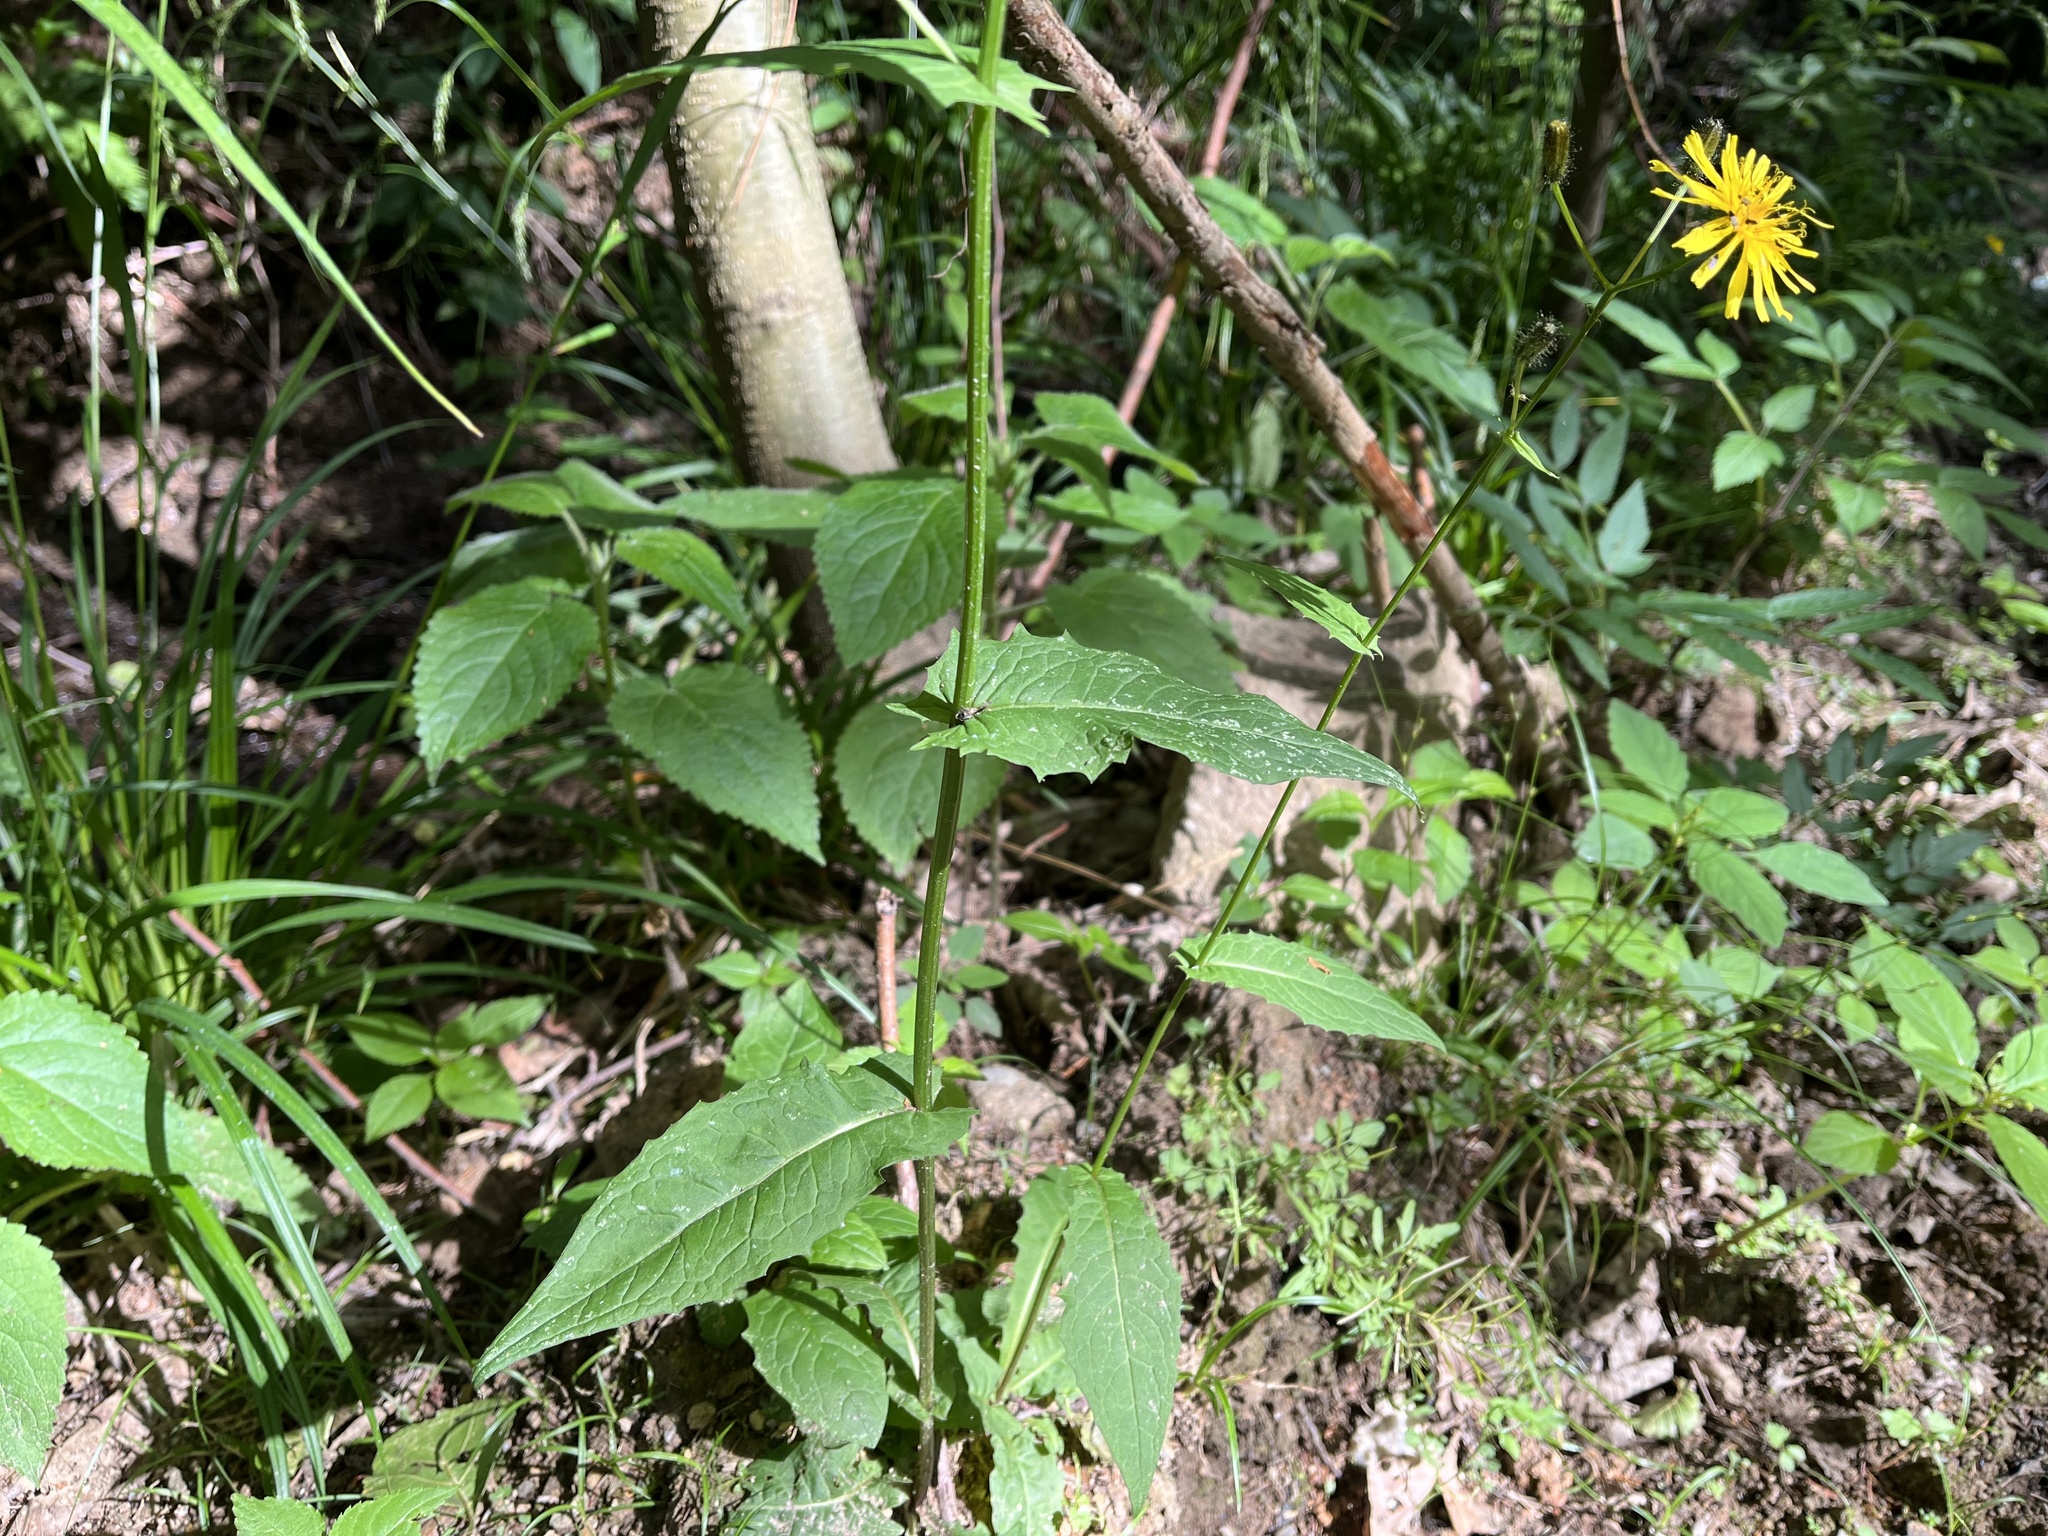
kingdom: Plantae
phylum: Tracheophyta
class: Magnoliopsida
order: Asterales
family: Asteraceae
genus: Crepis
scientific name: Crepis paludosa
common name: Marsh hawk's-beard
